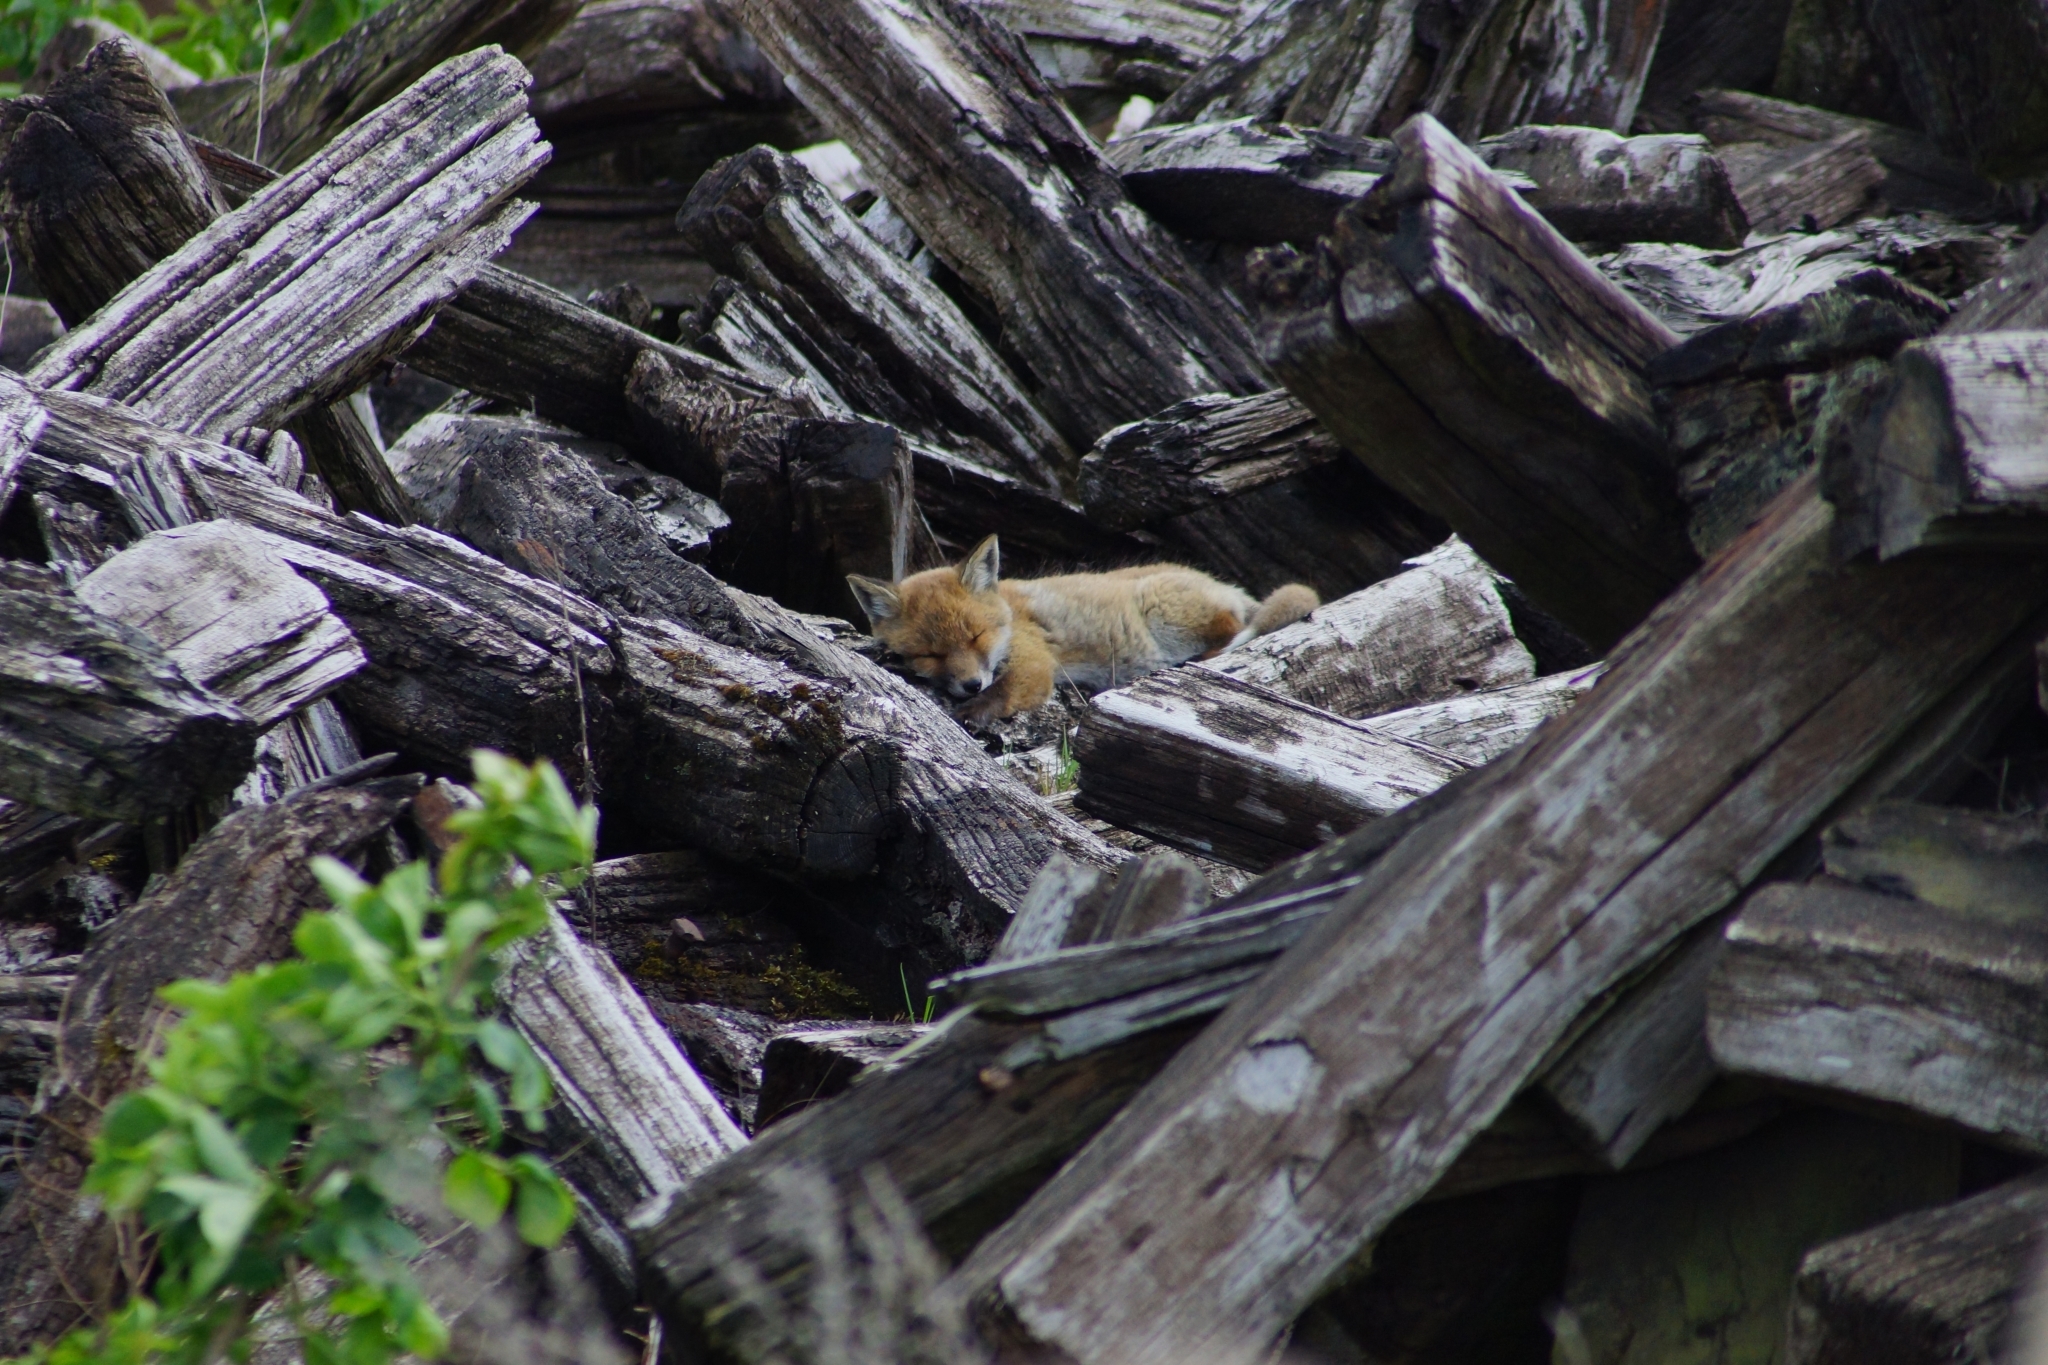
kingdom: Animalia
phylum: Chordata
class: Mammalia
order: Carnivora
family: Canidae
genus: Vulpes
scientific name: Vulpes vulpes
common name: Red fox
